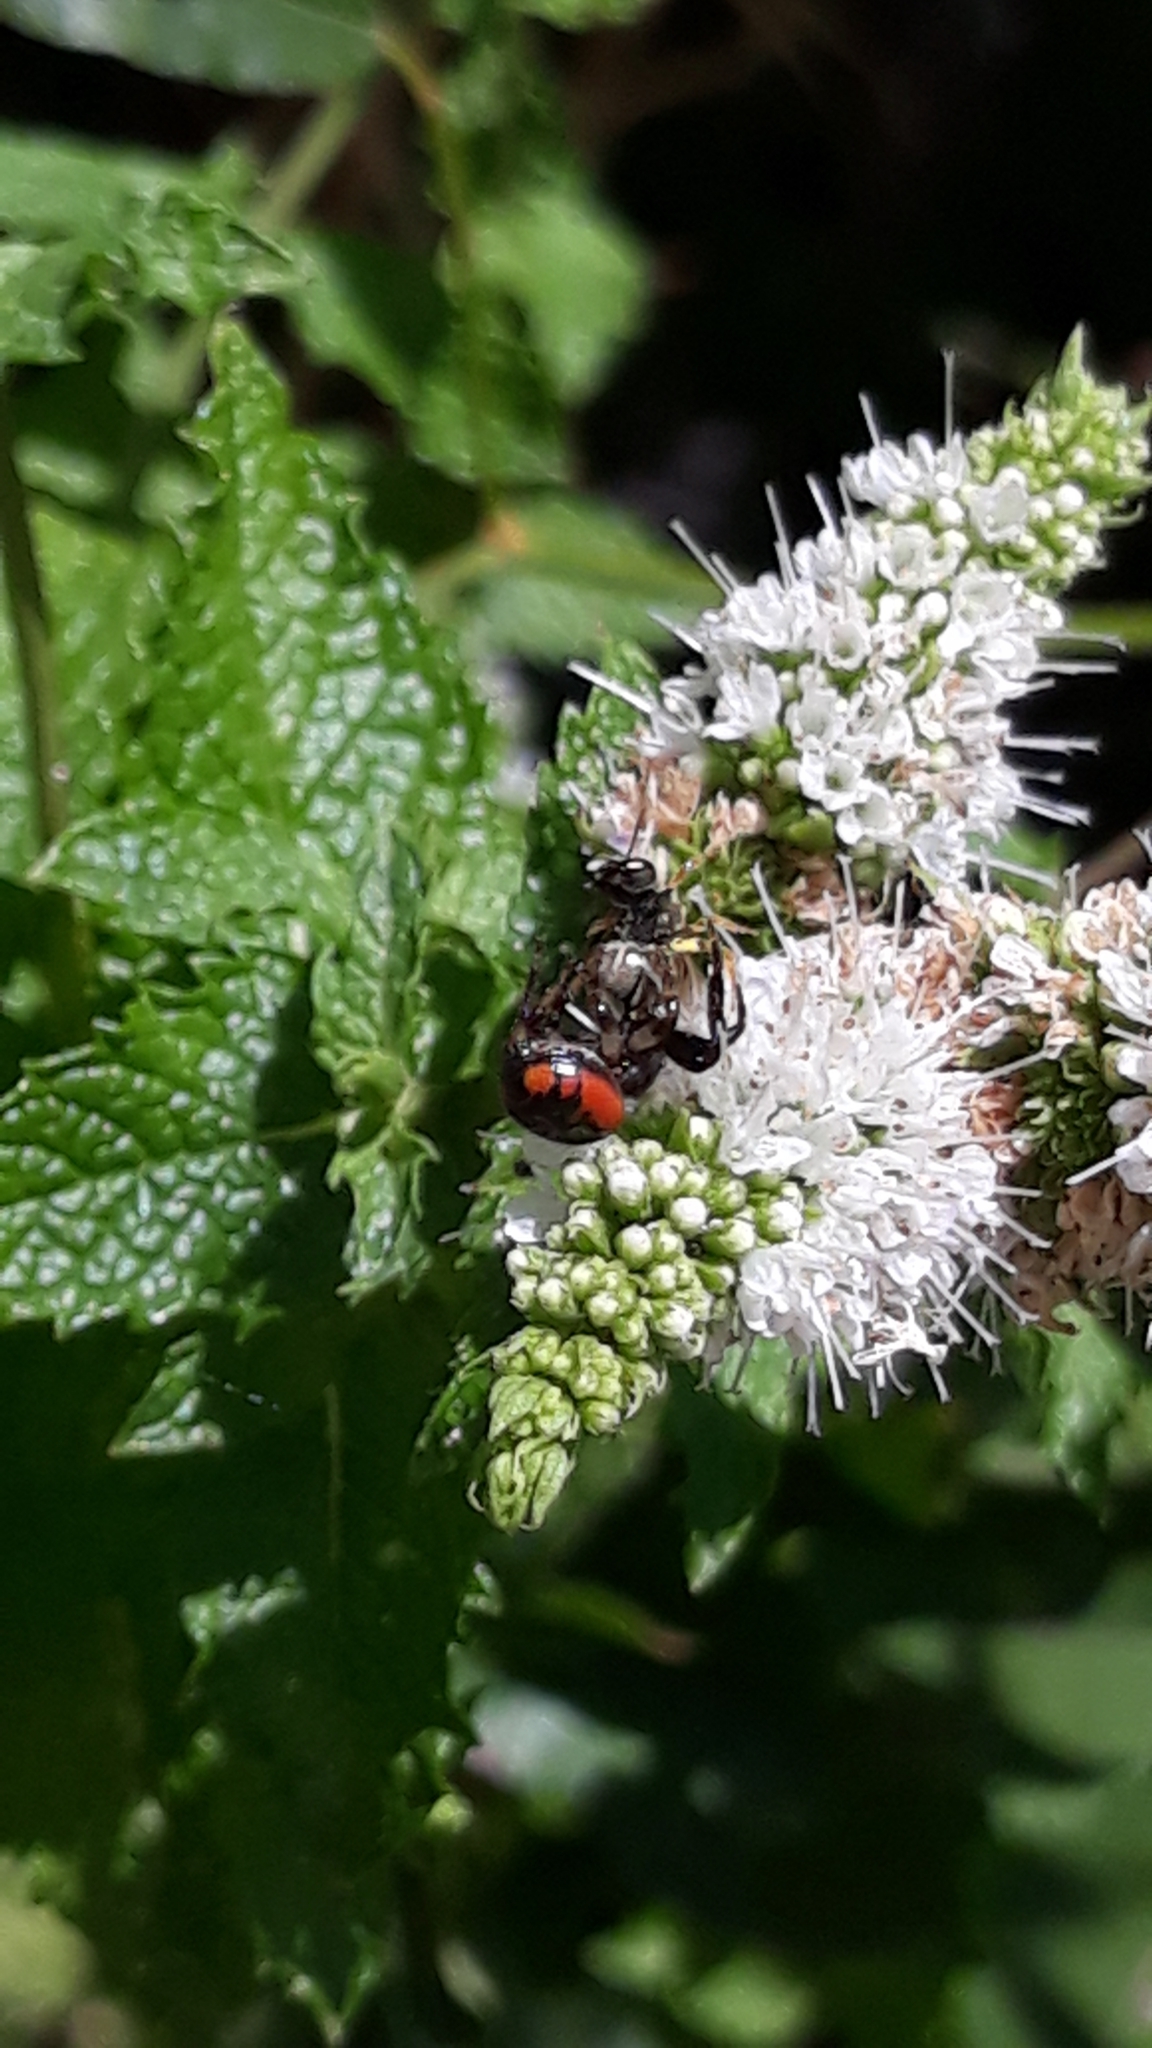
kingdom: Animalia
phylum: Arthropoda
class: Arachnida
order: Araneae
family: Thomisidae
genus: Synema
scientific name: Synema globosum
